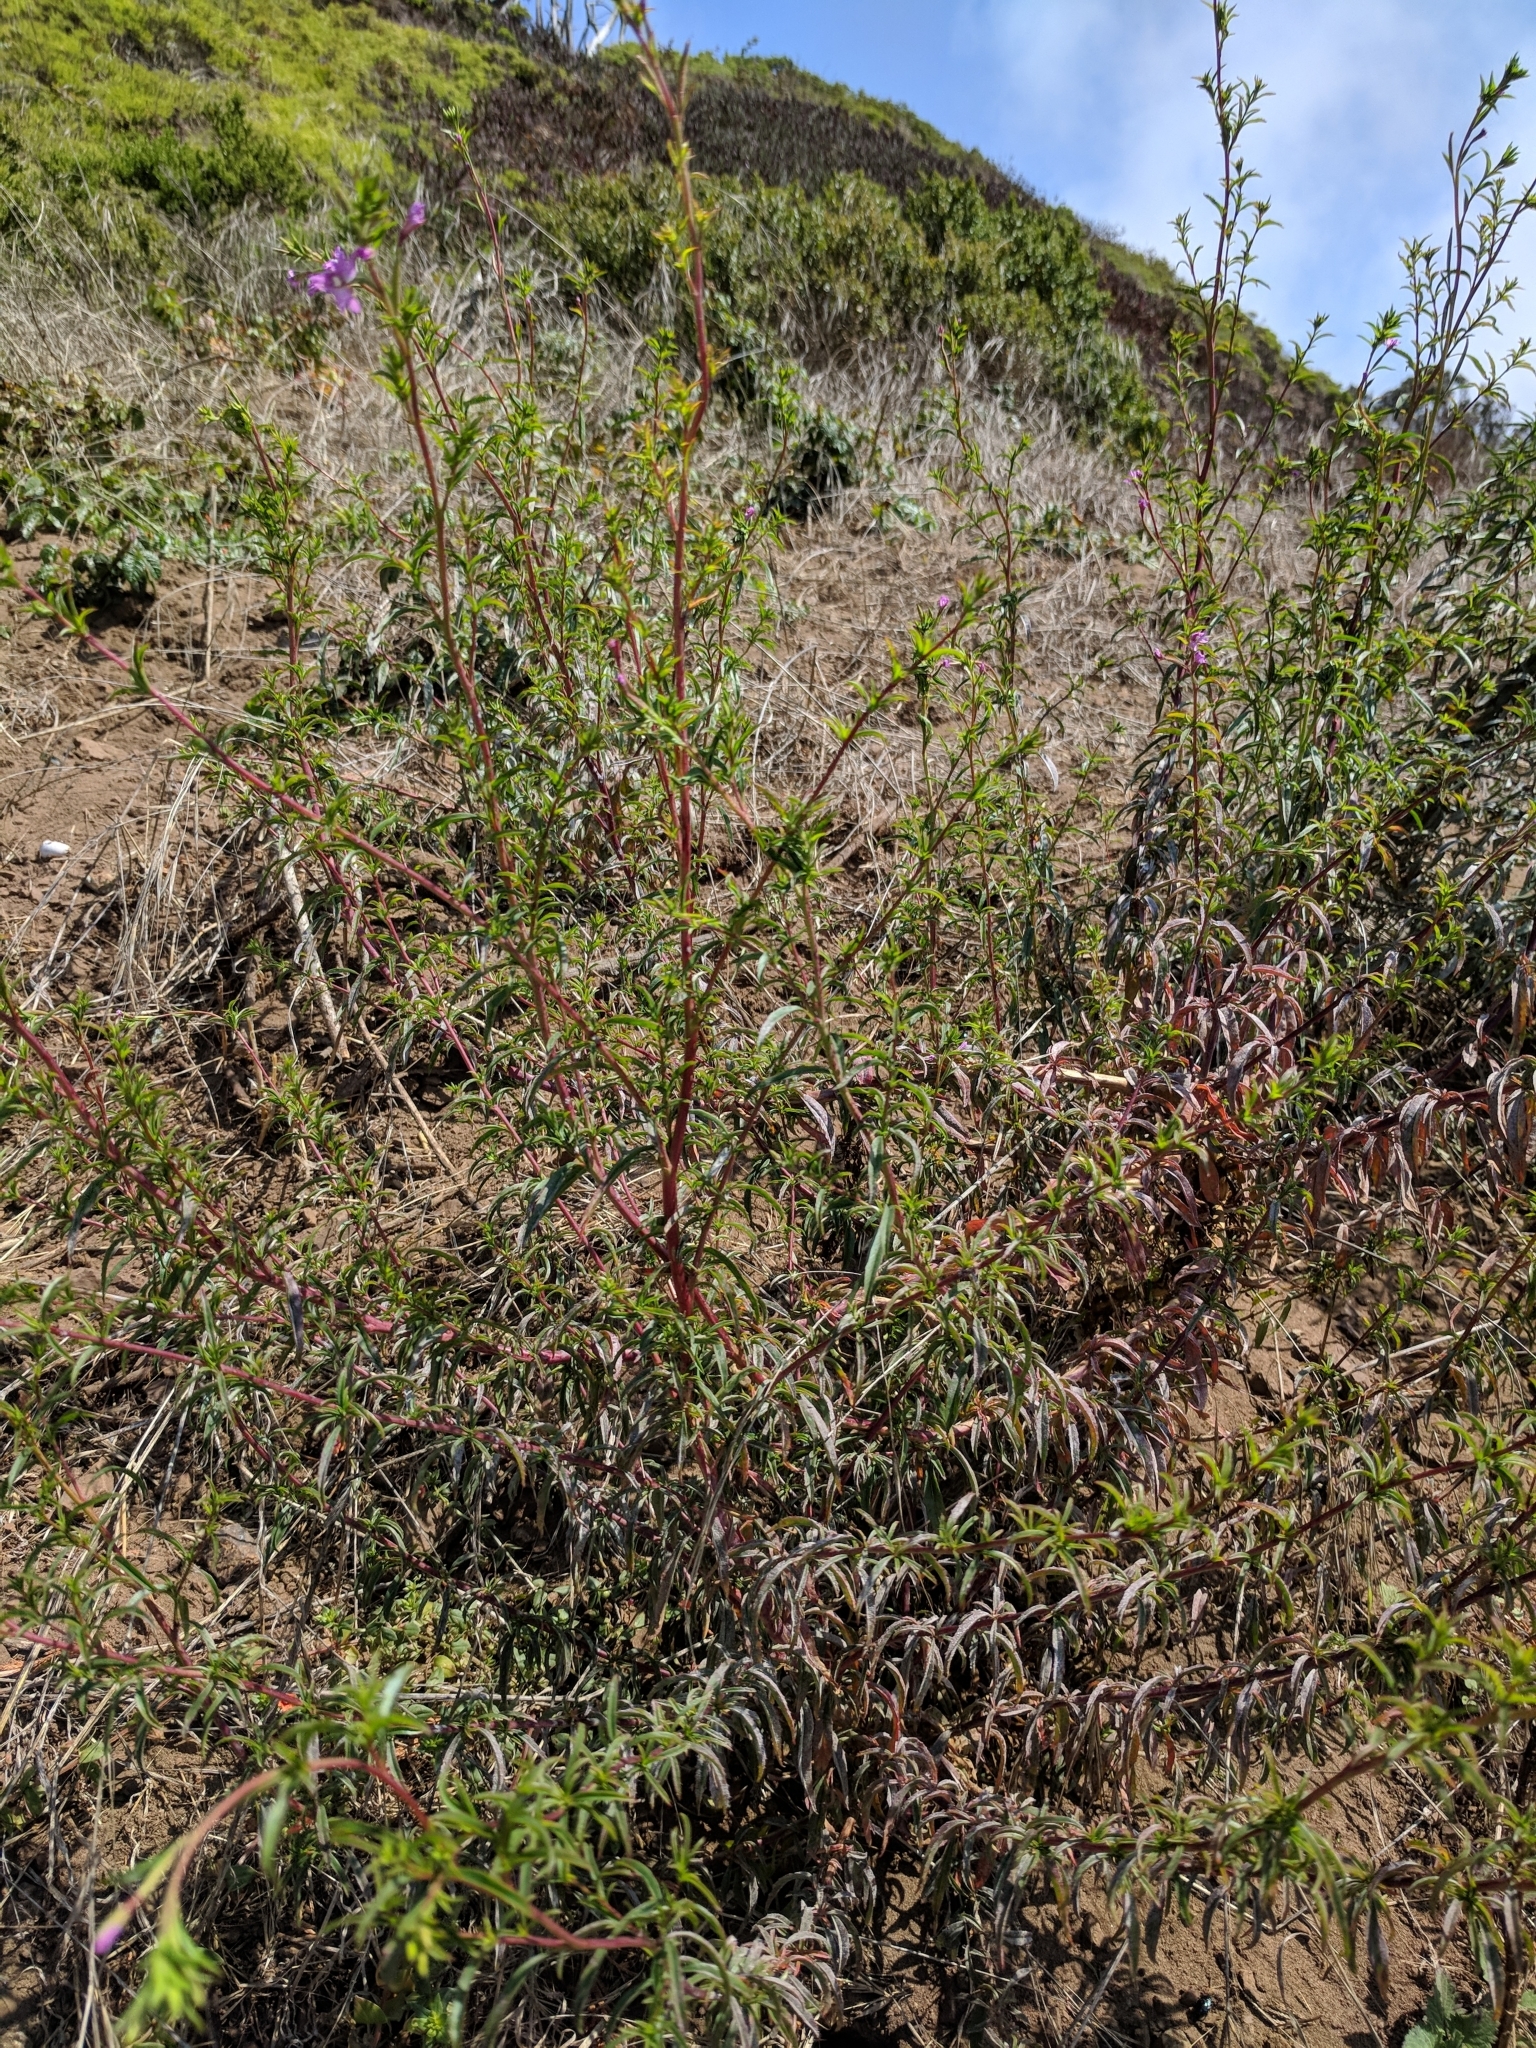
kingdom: Plantae
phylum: Tracheophyta
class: Magnoliopsida
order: Myrtales
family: Onagraceae
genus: Epilobium
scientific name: Epilobium brachycarpum
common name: Annual willowherb
